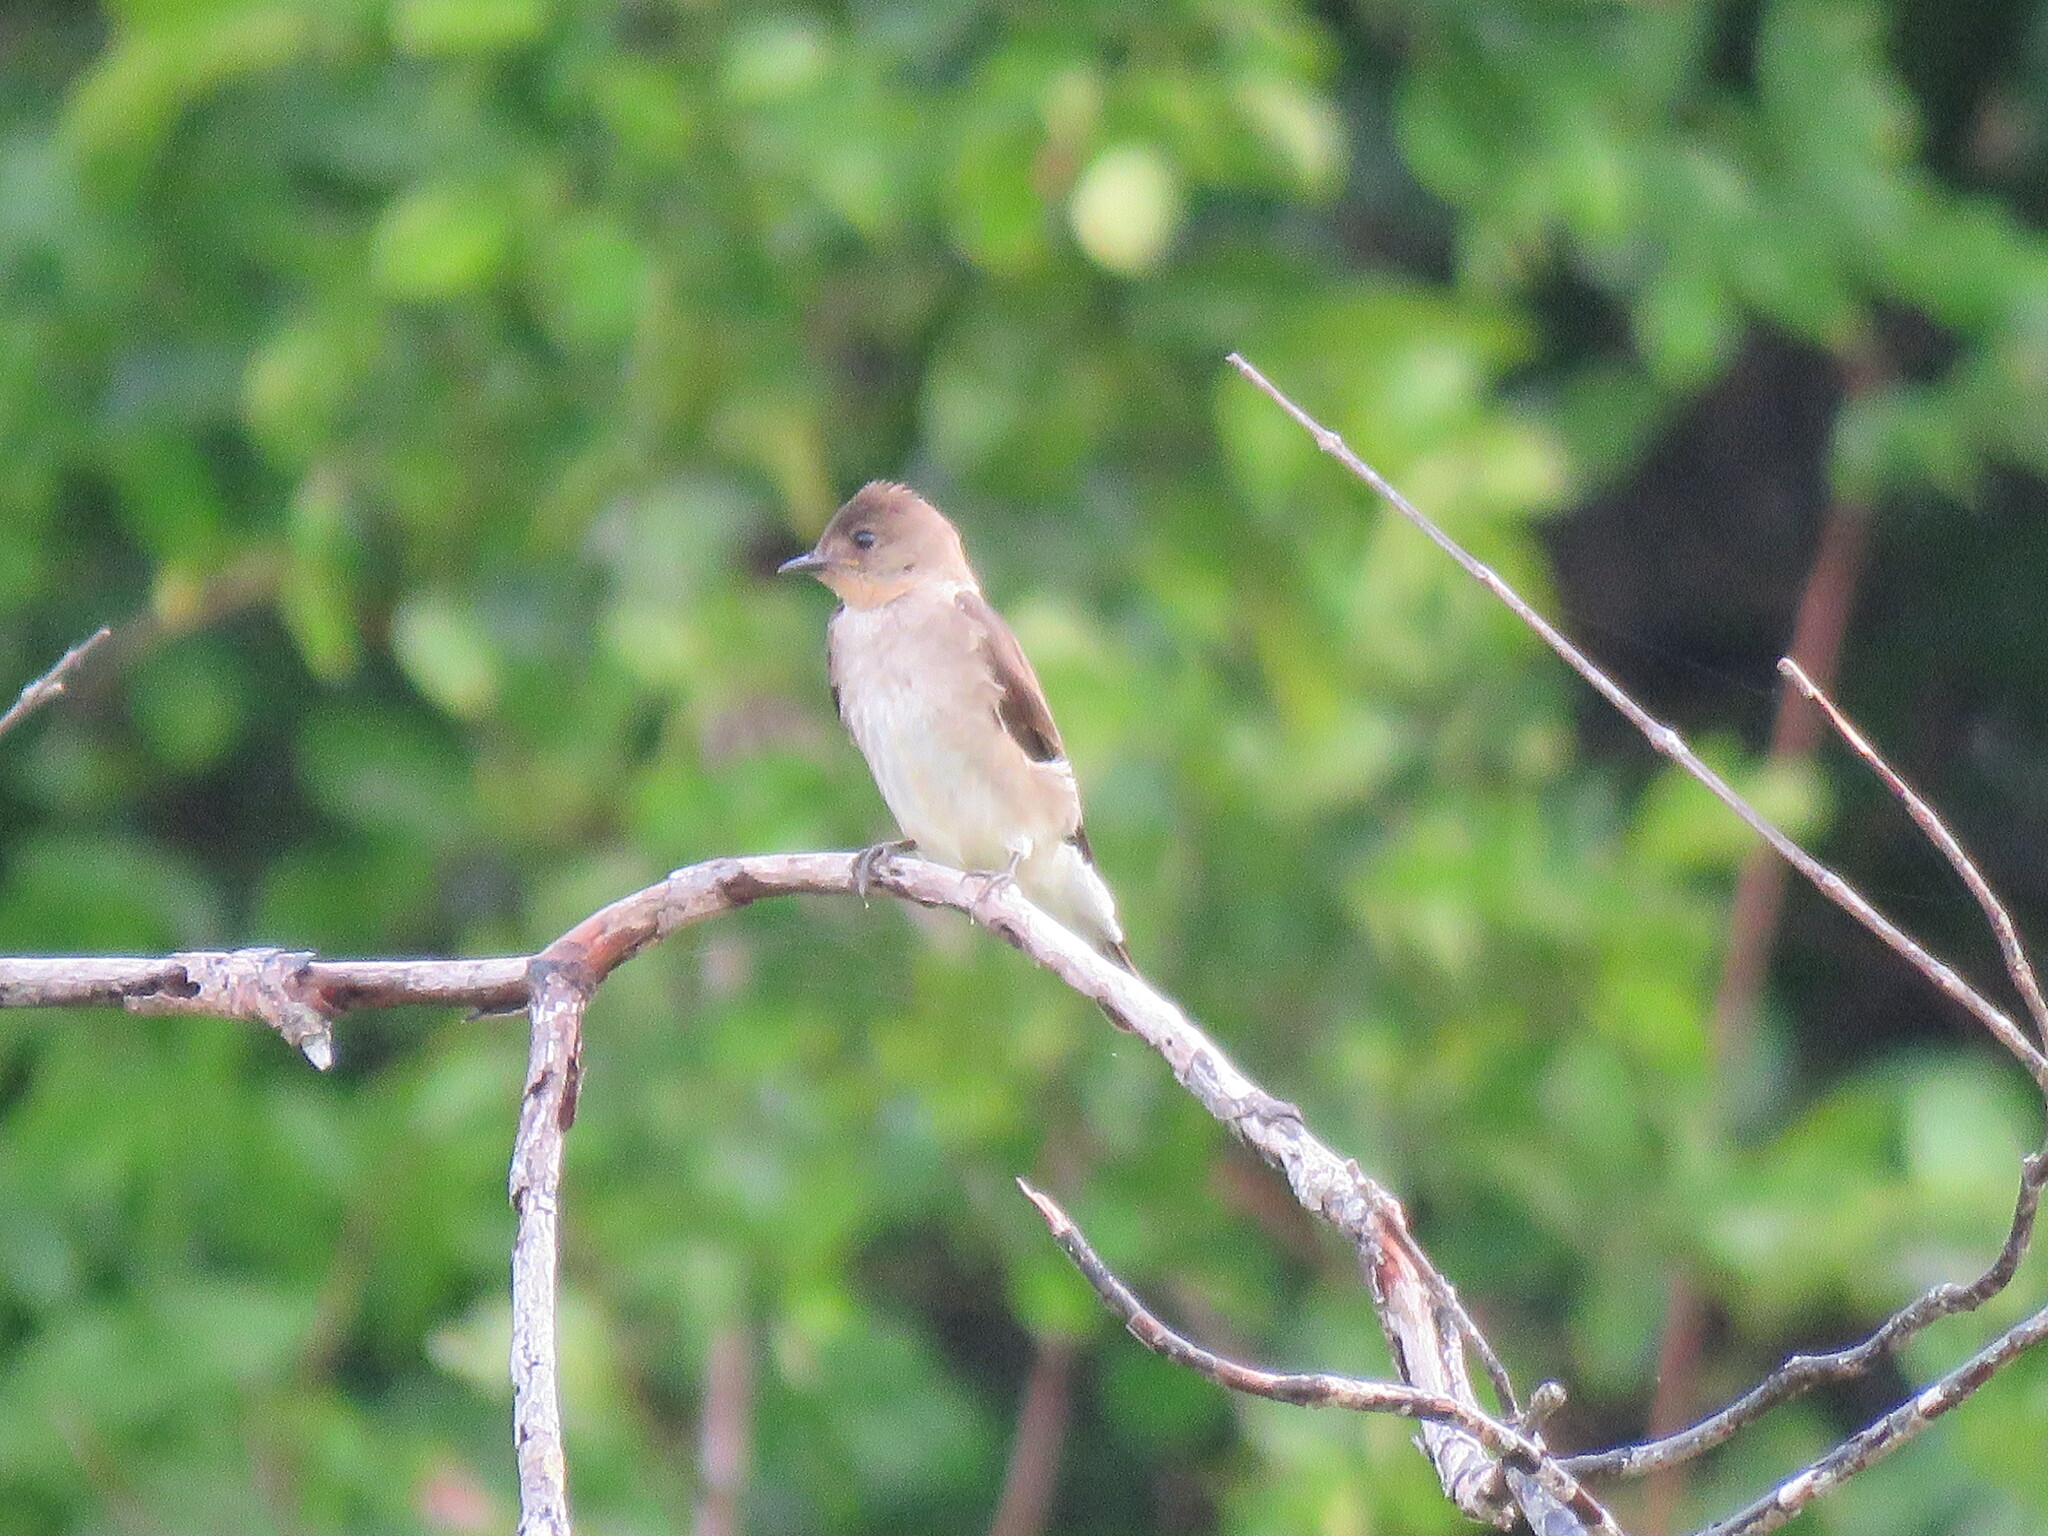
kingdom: Animalia
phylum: Chordata
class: Aves
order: Passeriformes
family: Hirundinidae
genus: Stelgidopteryx
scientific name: Stelgidopteryx ruficollis
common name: Southern rough-winged swallow
